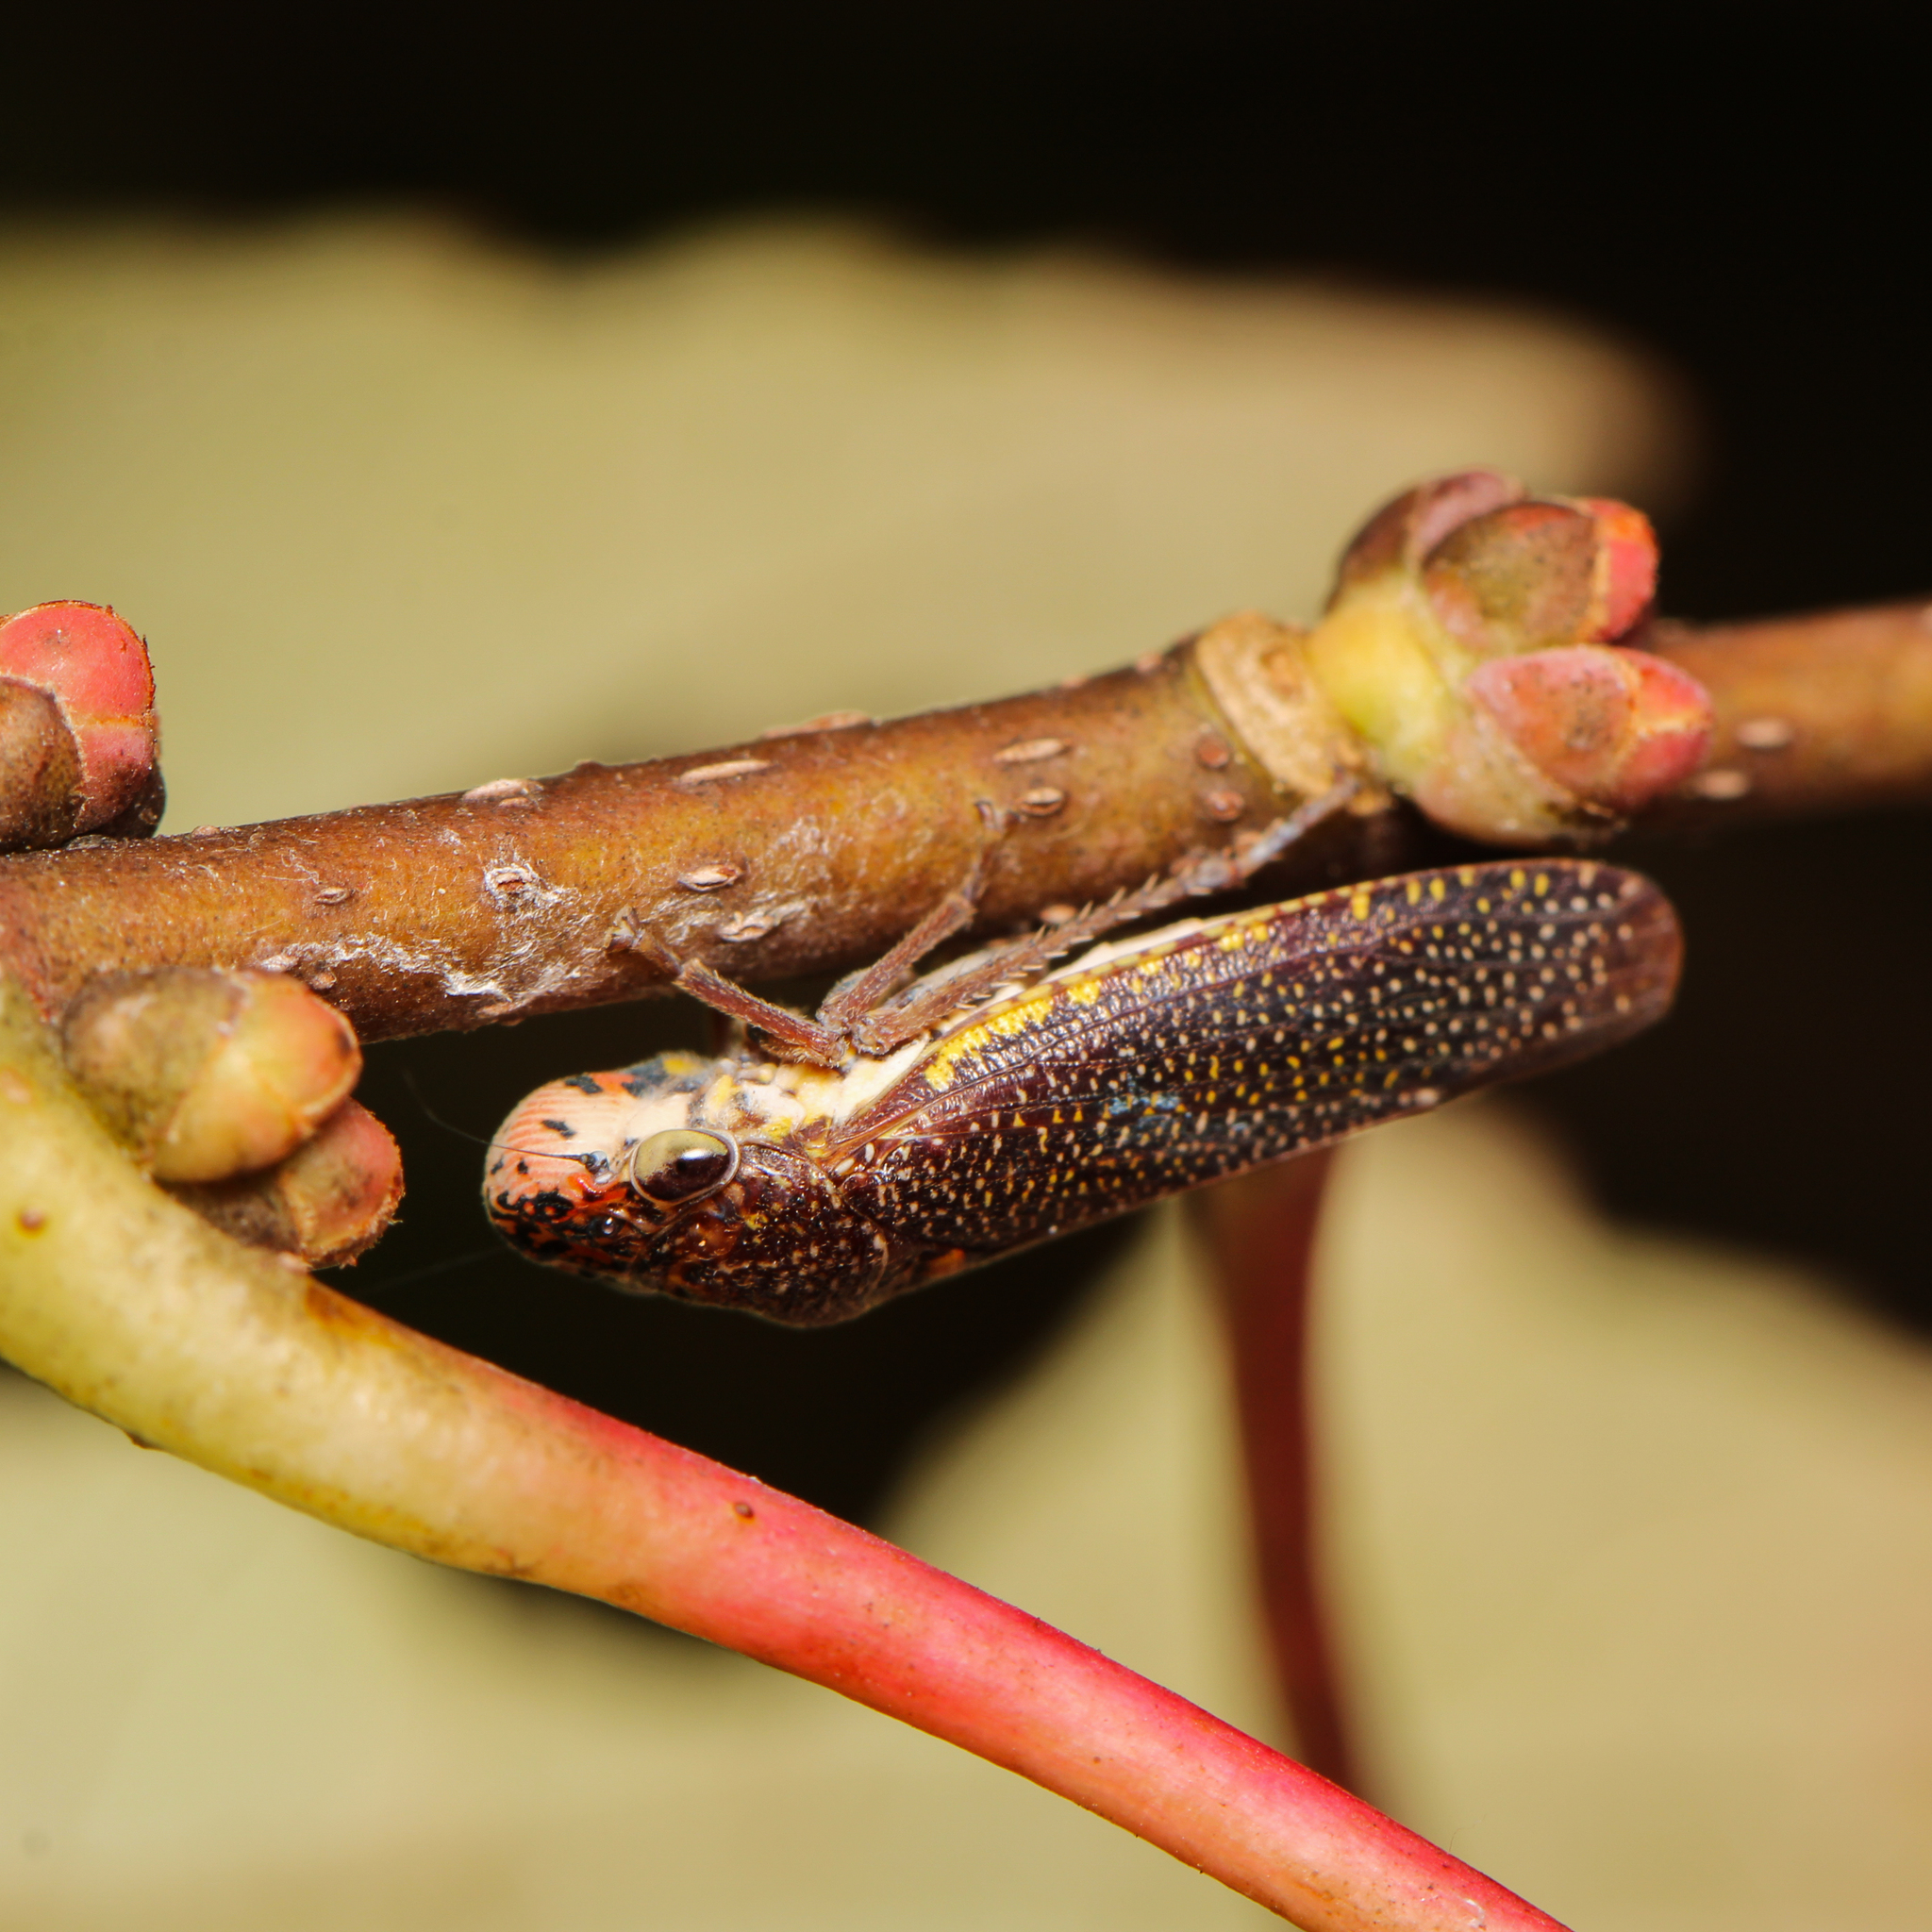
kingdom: Animalia
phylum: Arthropoda
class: Insecta
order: Hemiptera
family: Cicadellidae
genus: Paraulacizes
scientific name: Paraulacizes irrorata
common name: Speckled sharpshooter
